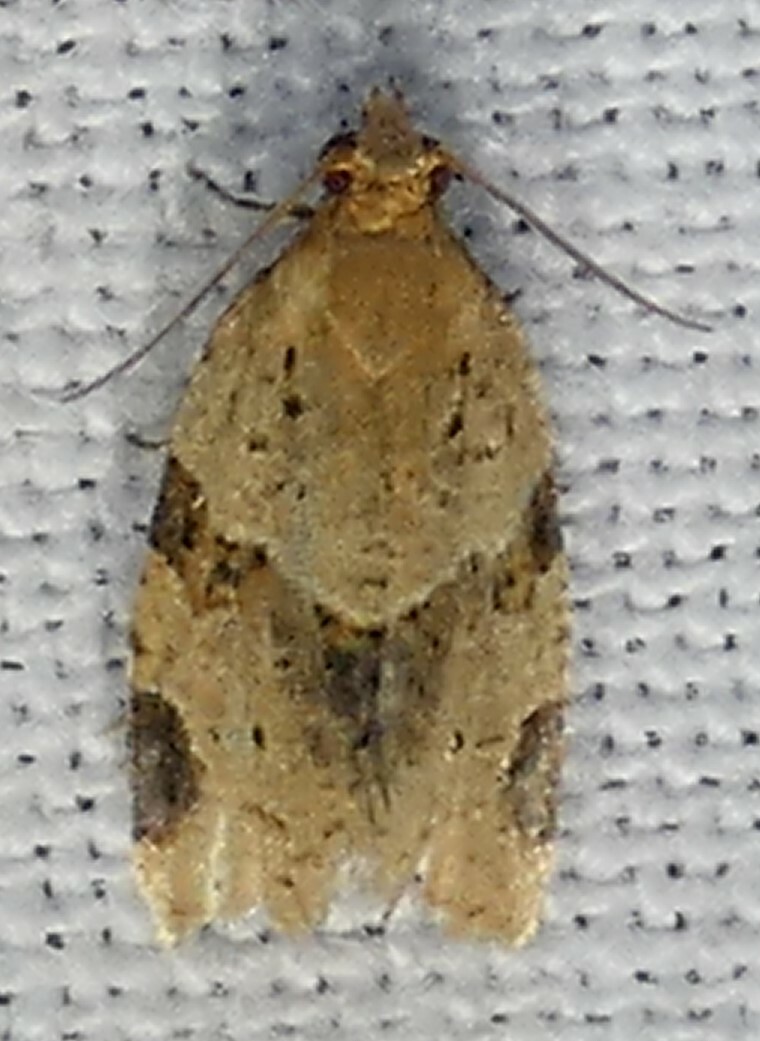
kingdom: Animalia
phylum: Arthropoda
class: Insecta
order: Lepidoptera
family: Tortricidae
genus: Clepsis
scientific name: Clepsis peritana
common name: Garden tortrix
